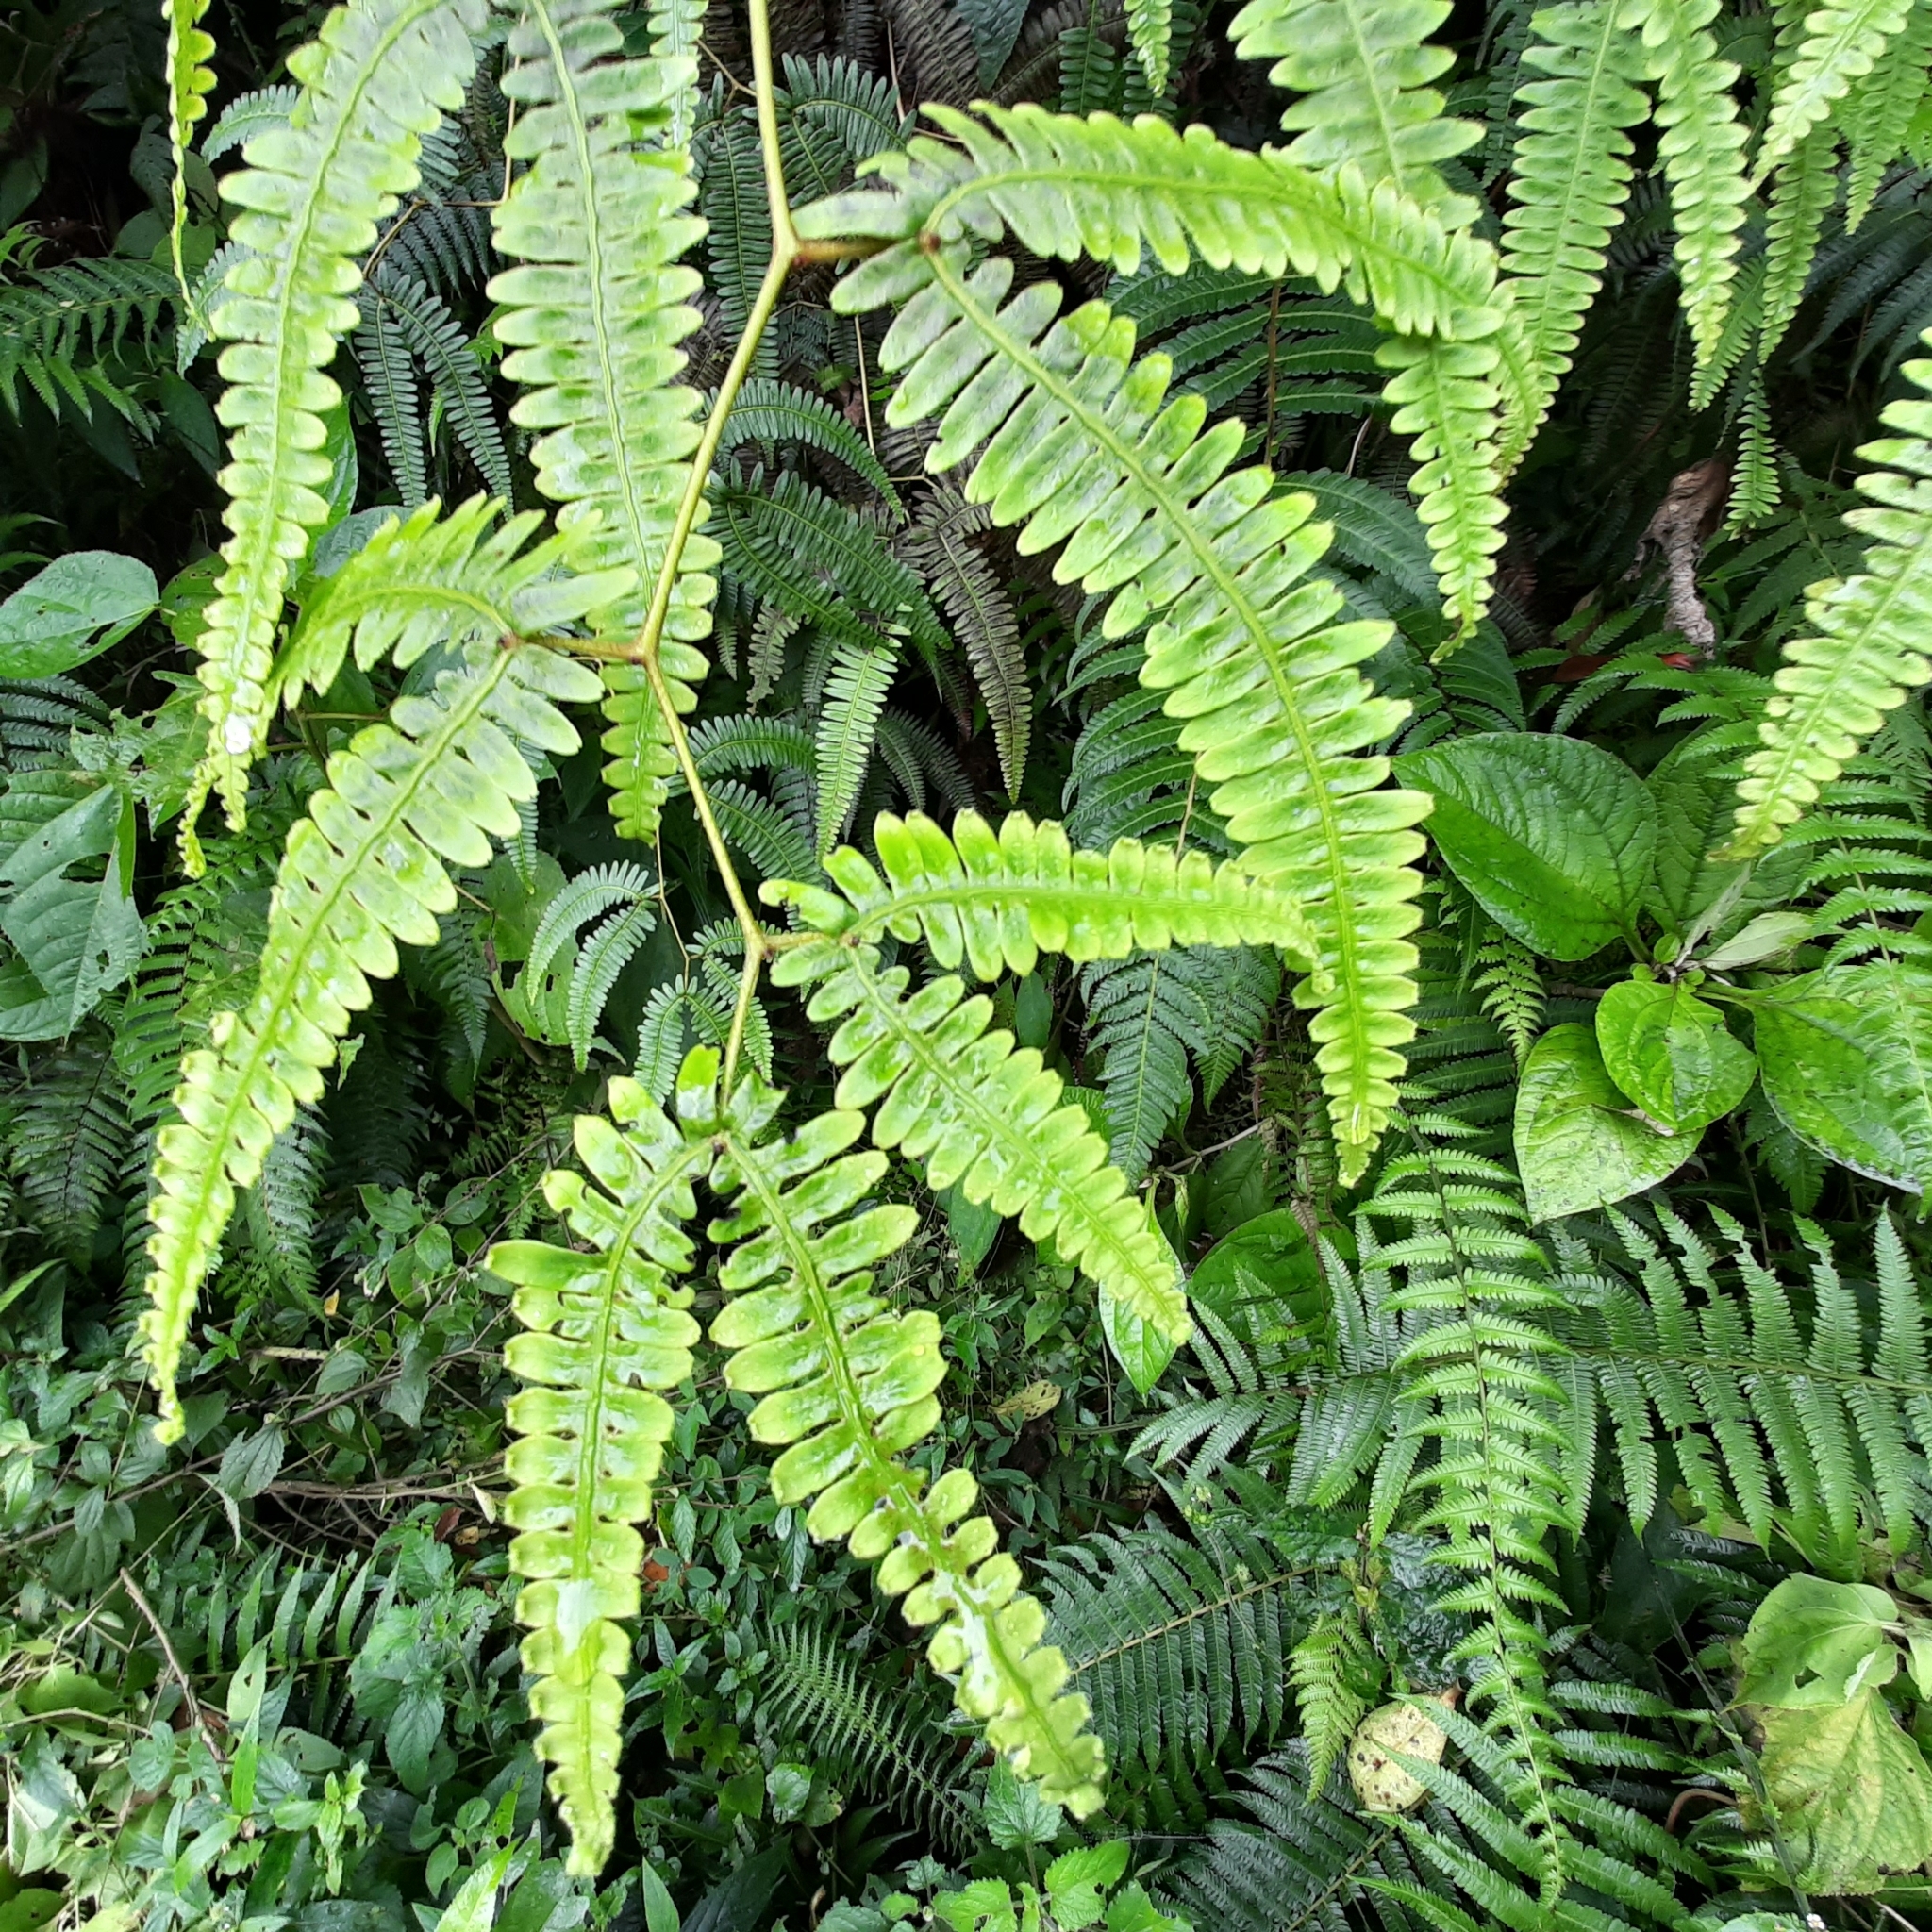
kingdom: Plantae
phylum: Tracheophyta
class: Polypodiopsida
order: Gleicheniales
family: Gleicheniaceae
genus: Gleichenella
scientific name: Gleichenella pectinata
